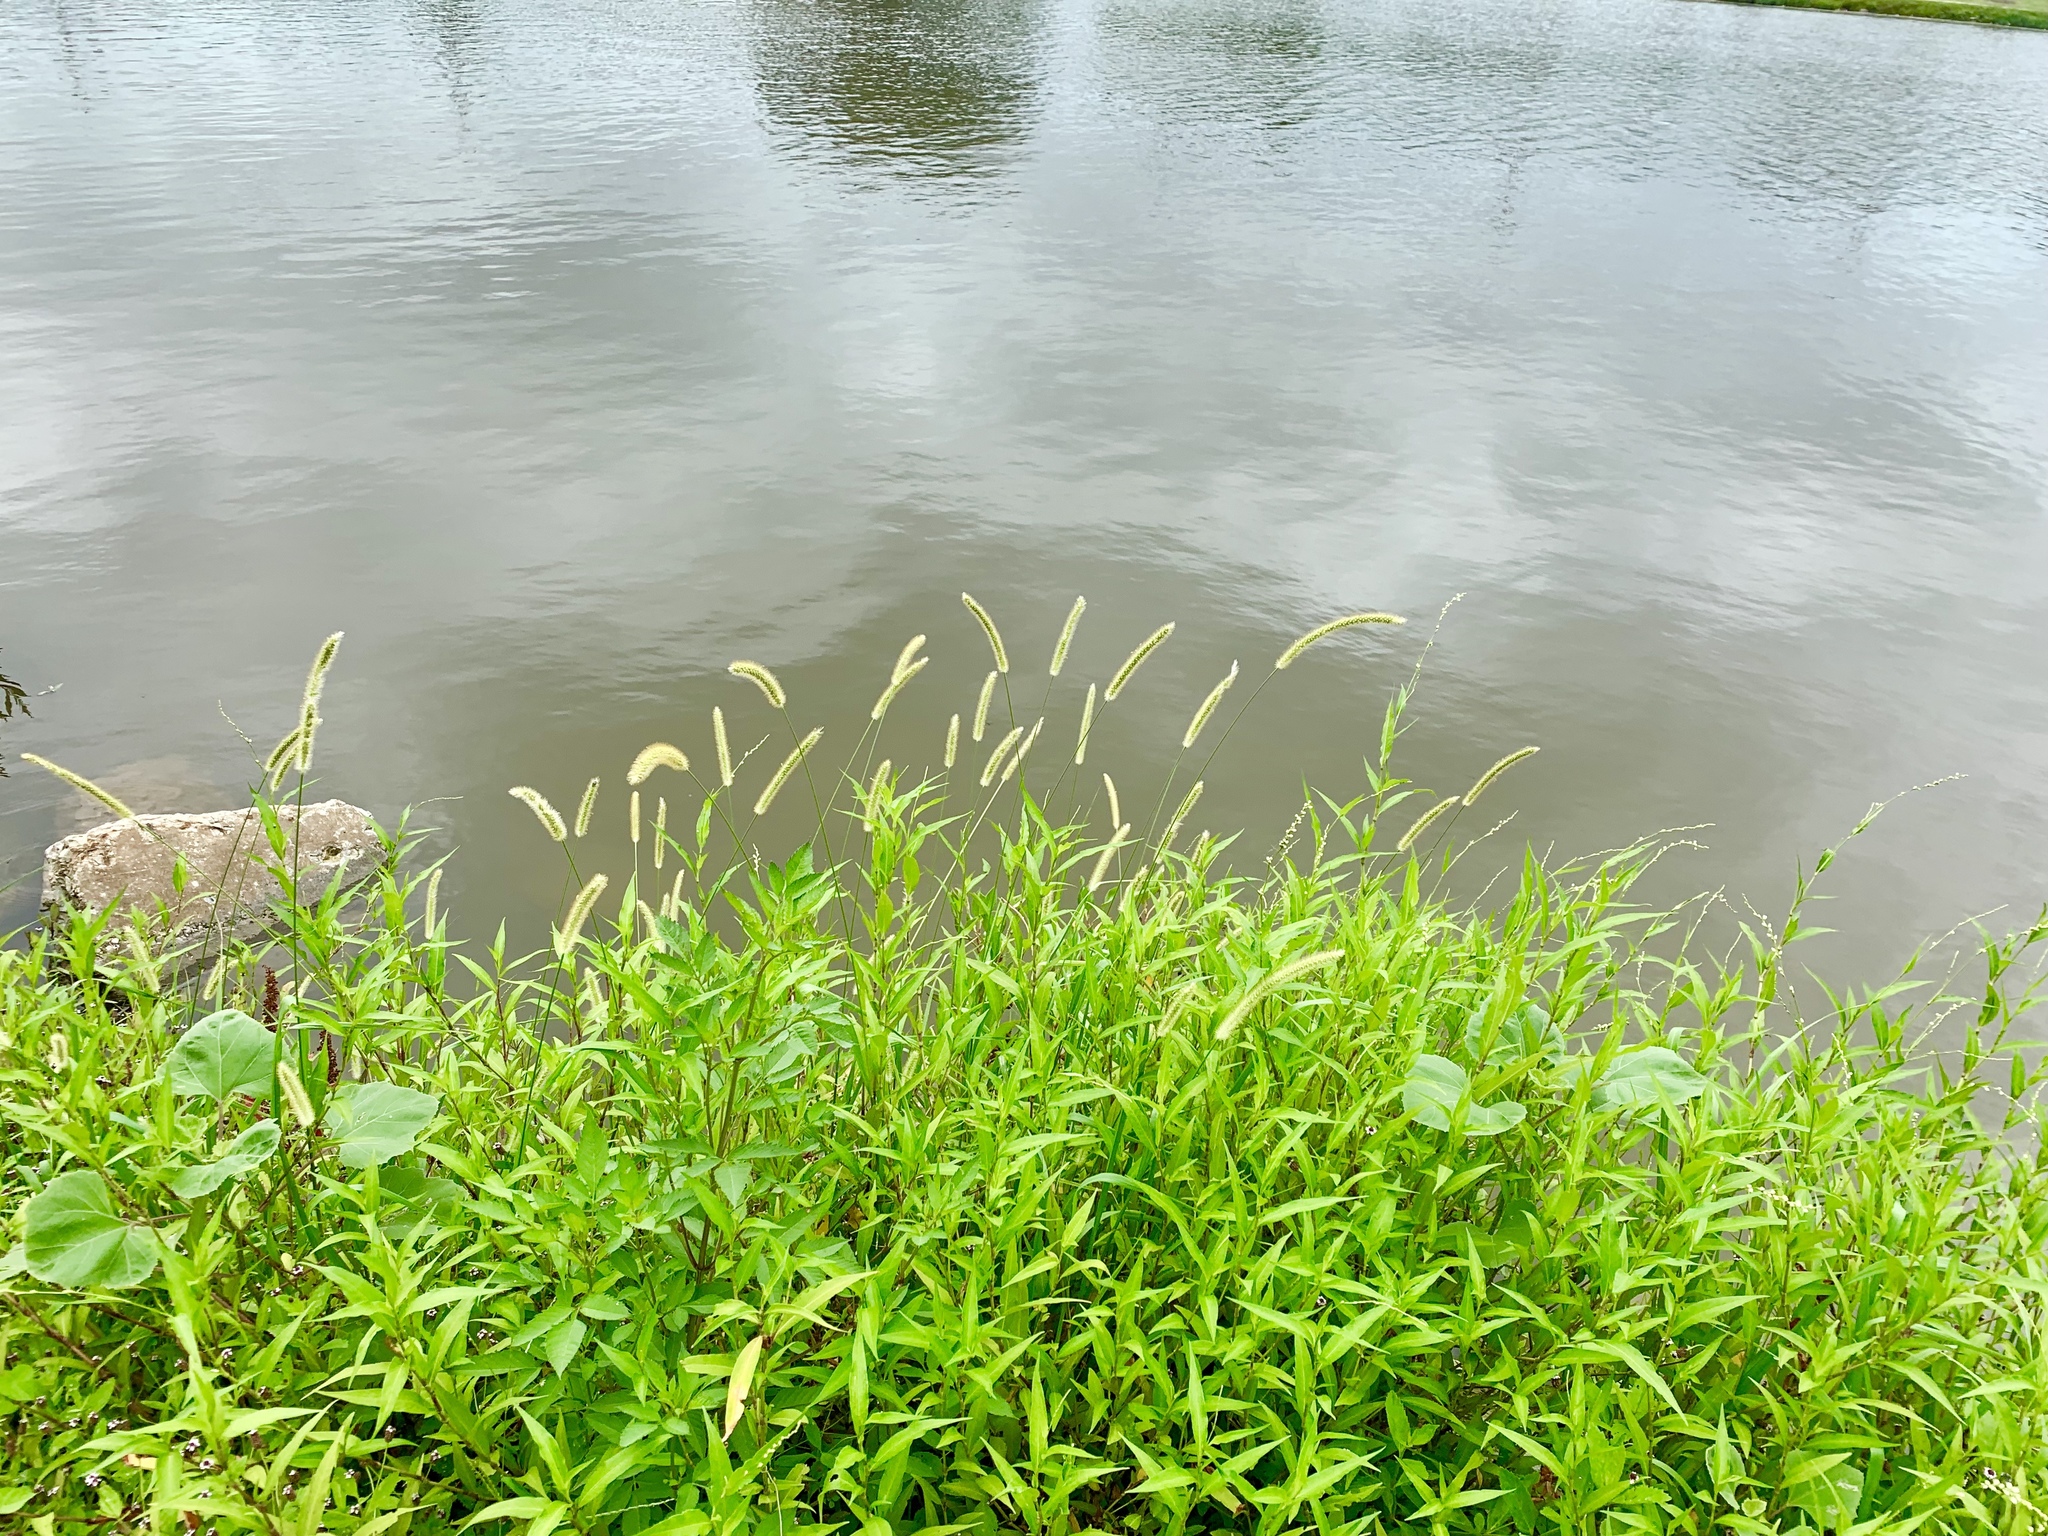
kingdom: Plantae
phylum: Tracheophyta
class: Liliopsida
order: Poales
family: Poaceae
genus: Setaria
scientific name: Setaria pumila
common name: Yellow bristle-grass
